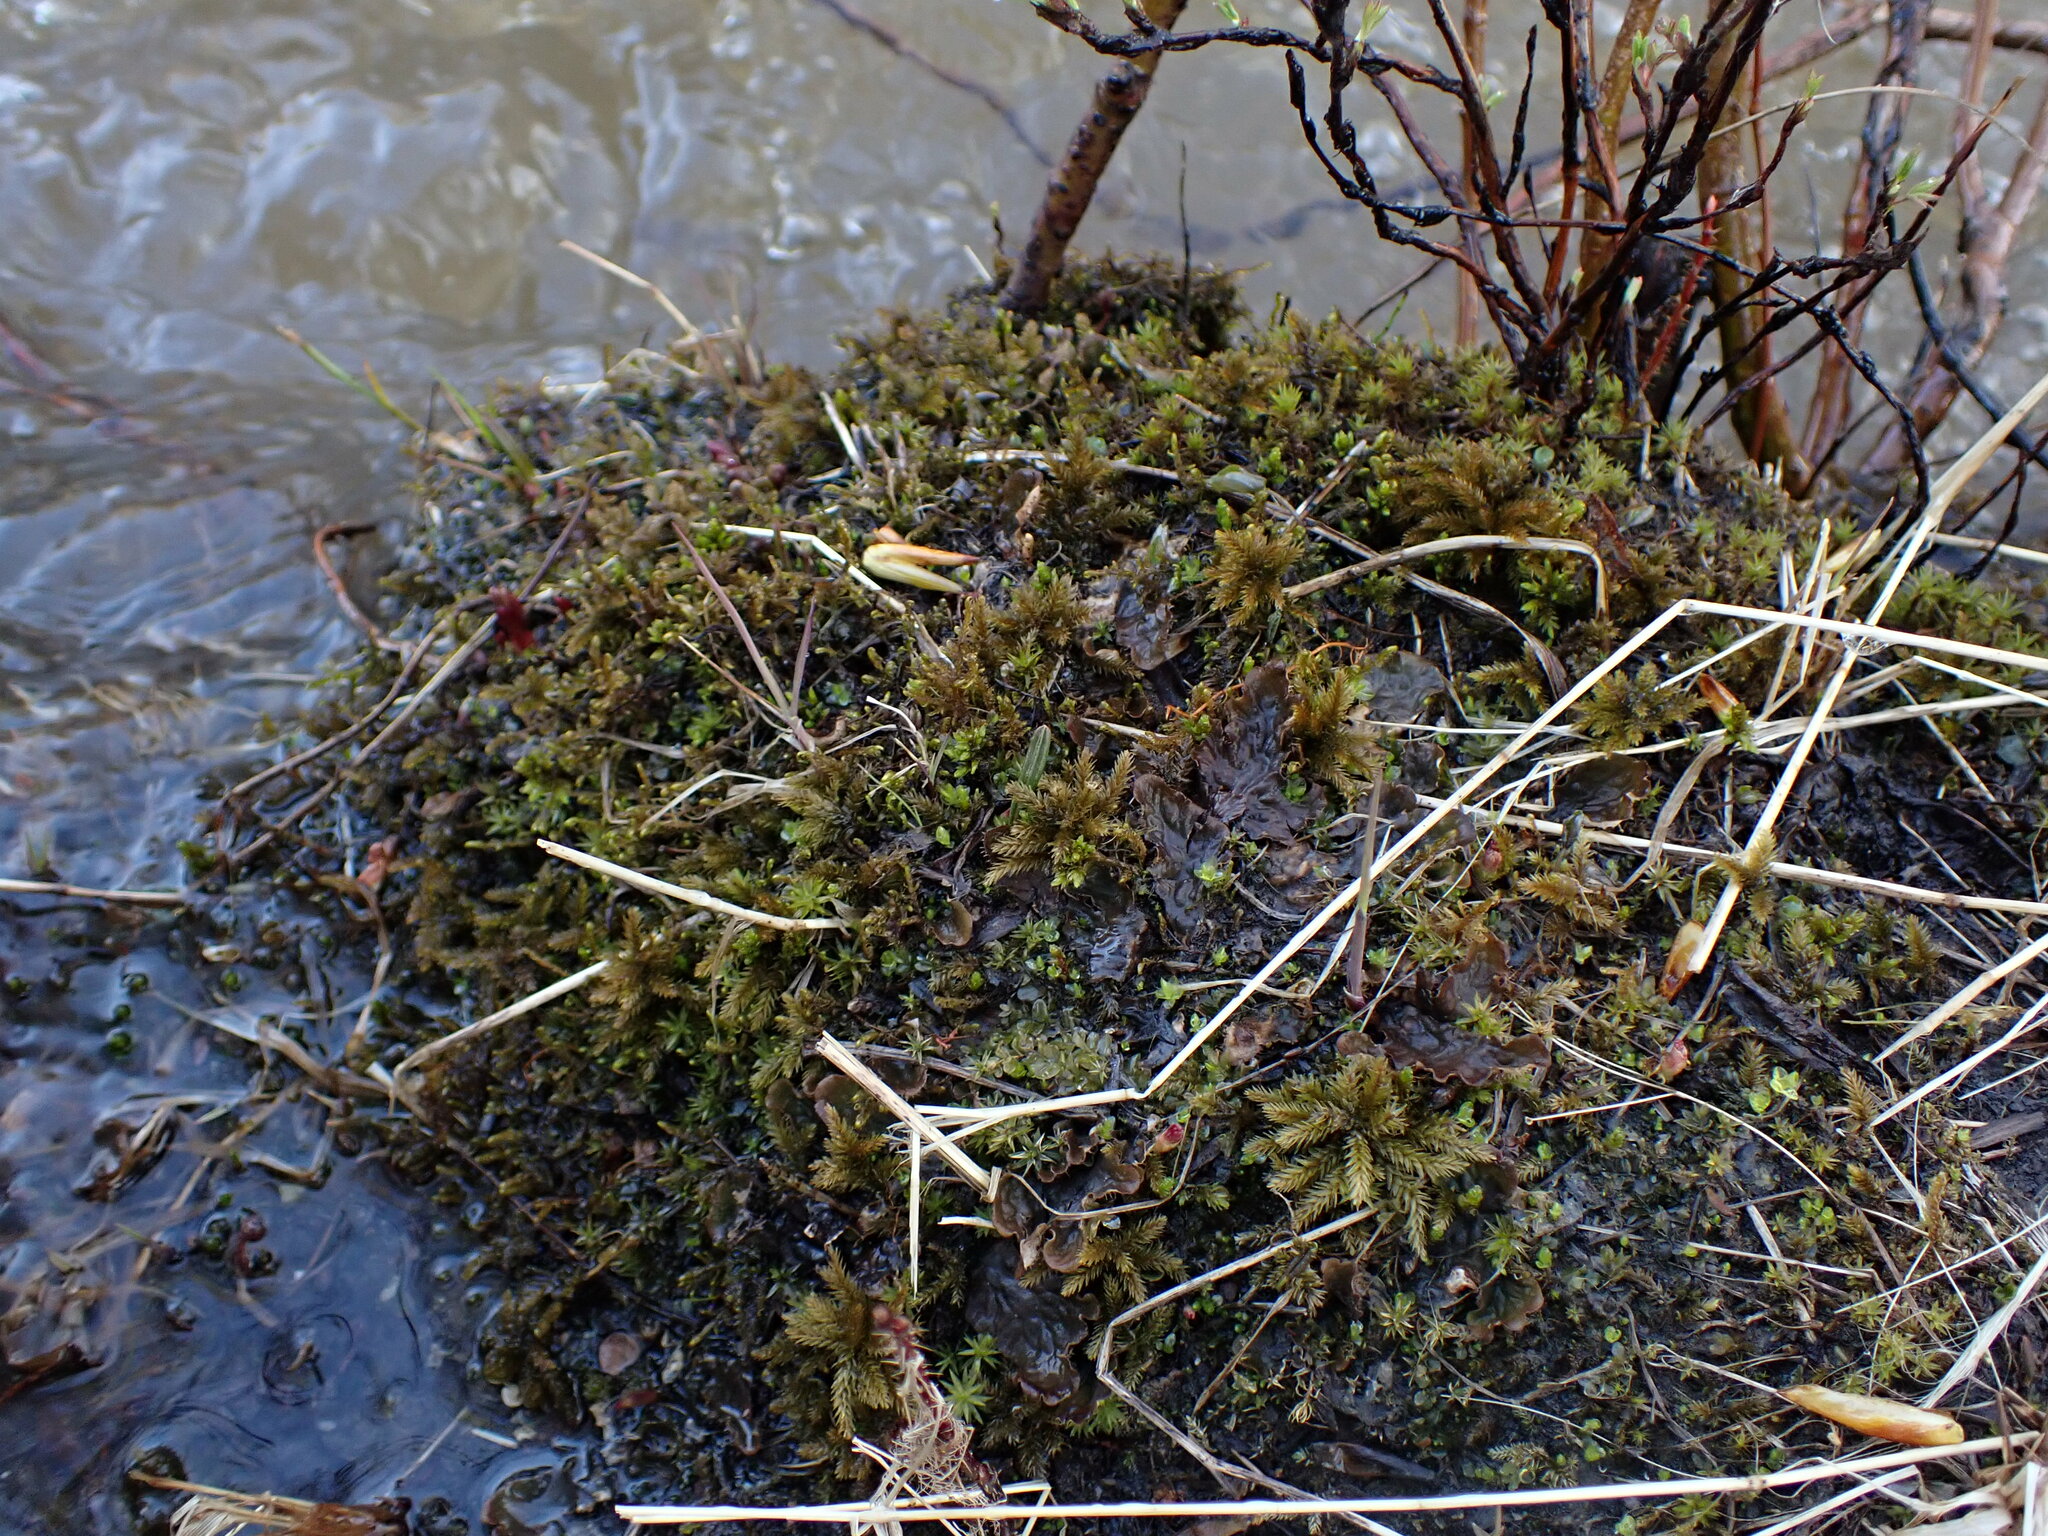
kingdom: Plantae
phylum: Bryophyta
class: Bryopsida
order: Hypnales
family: Climaciaceae
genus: Climacium
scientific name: Climacium dendroides
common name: Northern tree moss
